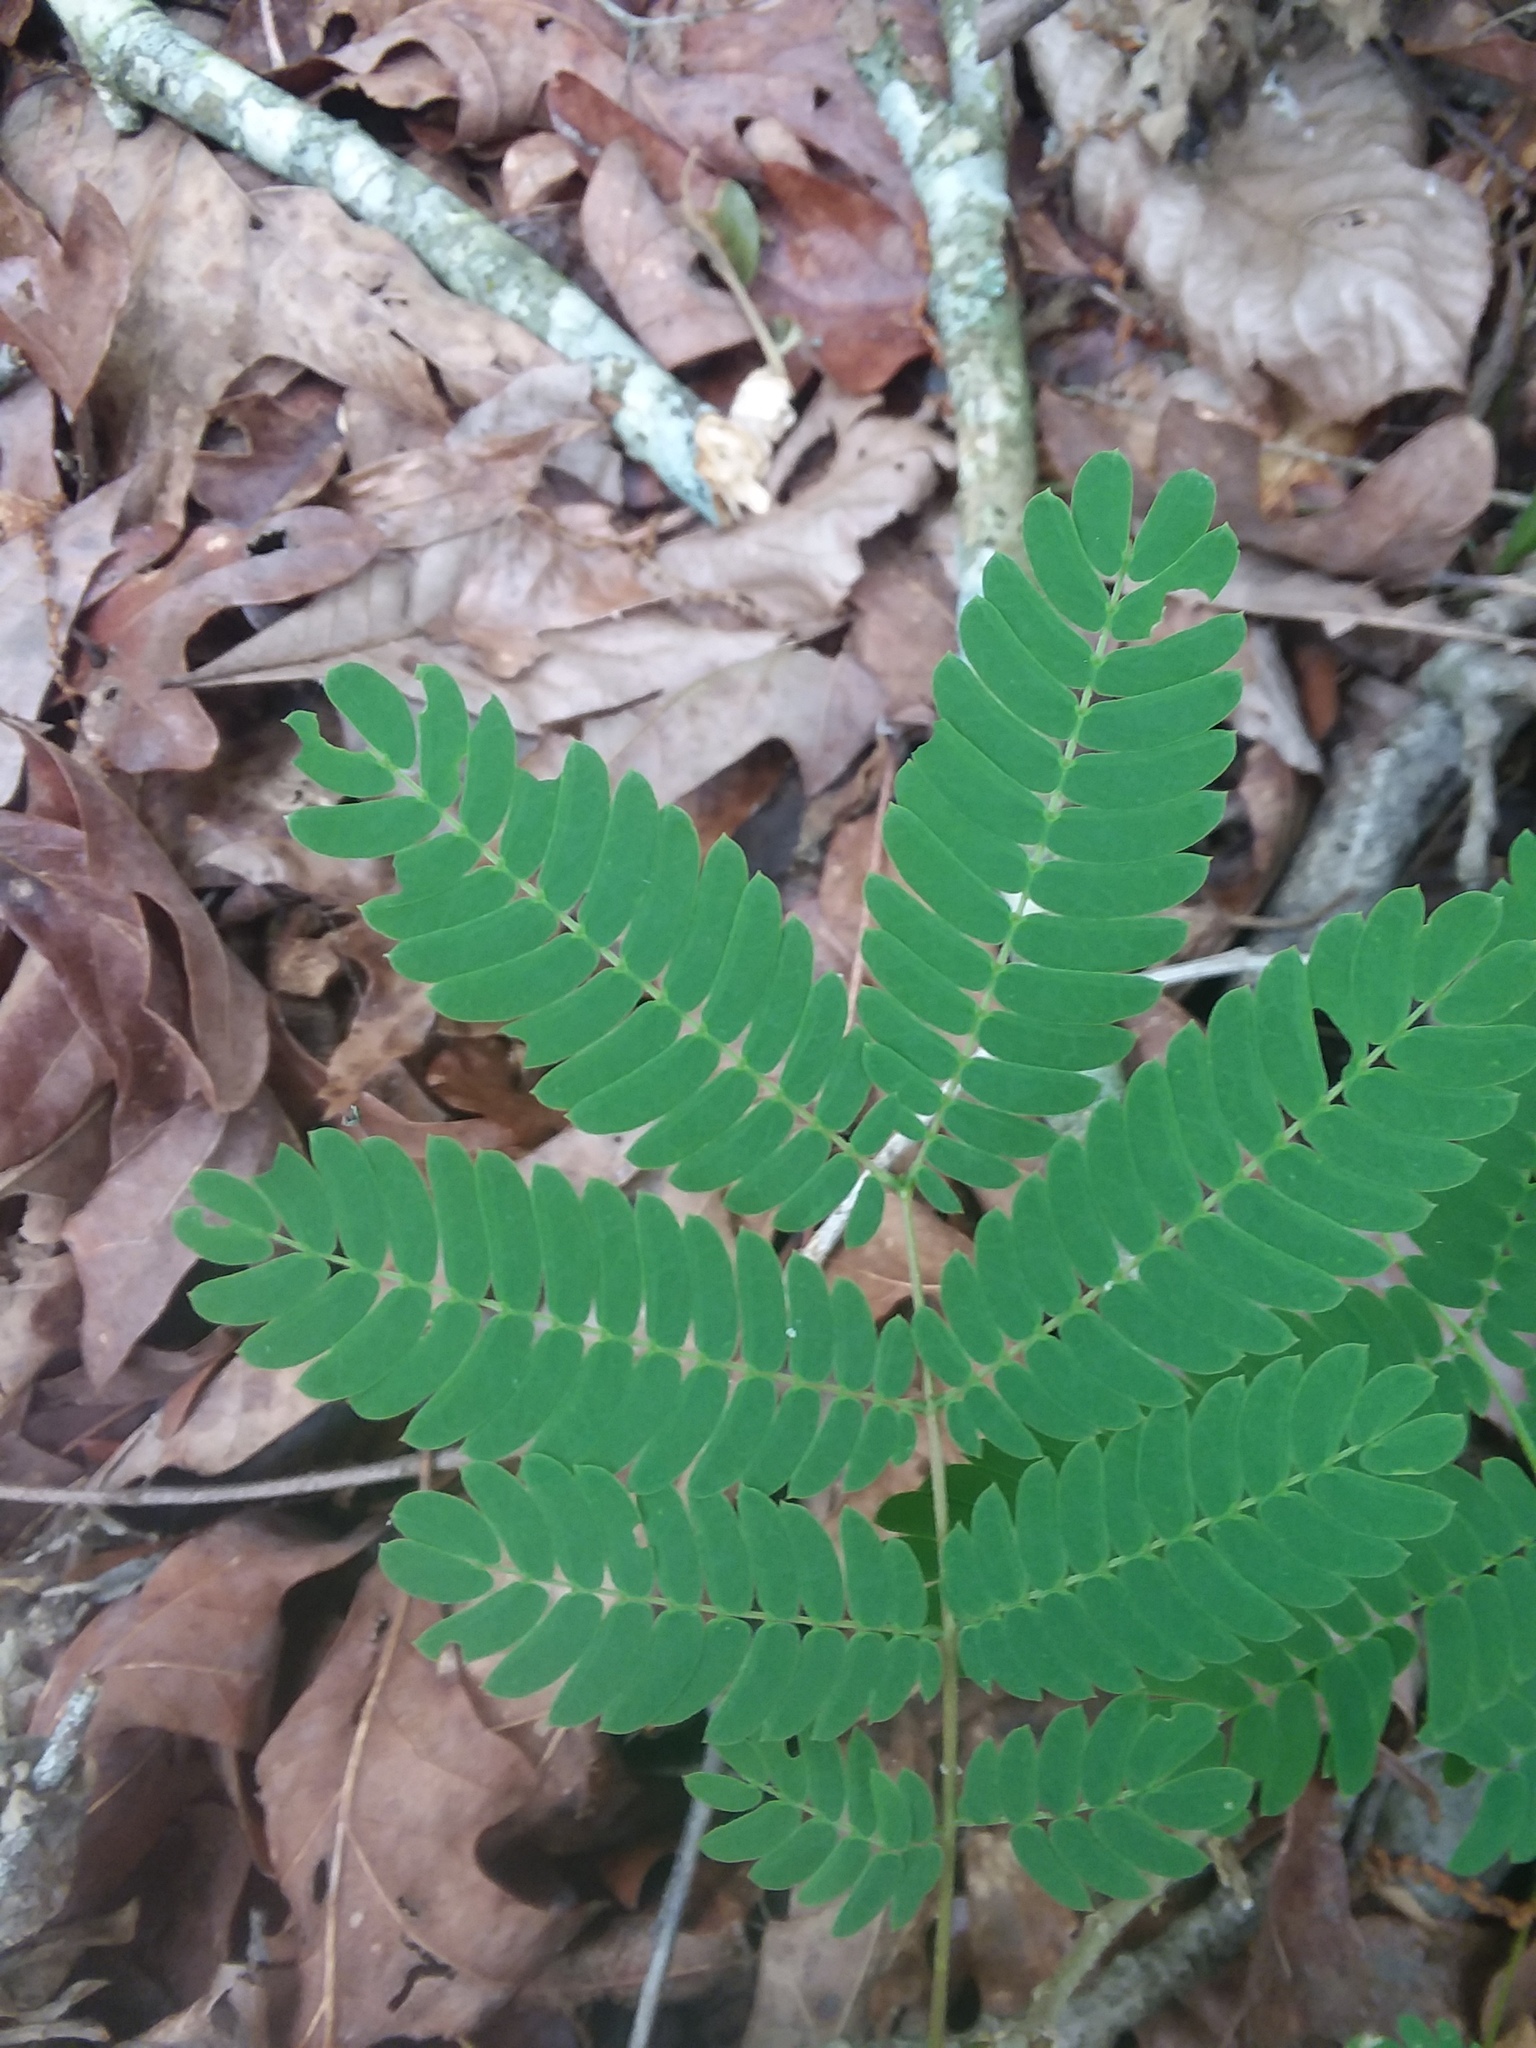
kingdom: Plantae
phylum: Tracheophyta
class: Magnoliopsida
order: Fabales
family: Fabaceae
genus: Albizia
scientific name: Albizia julibrissin
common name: Silktree
